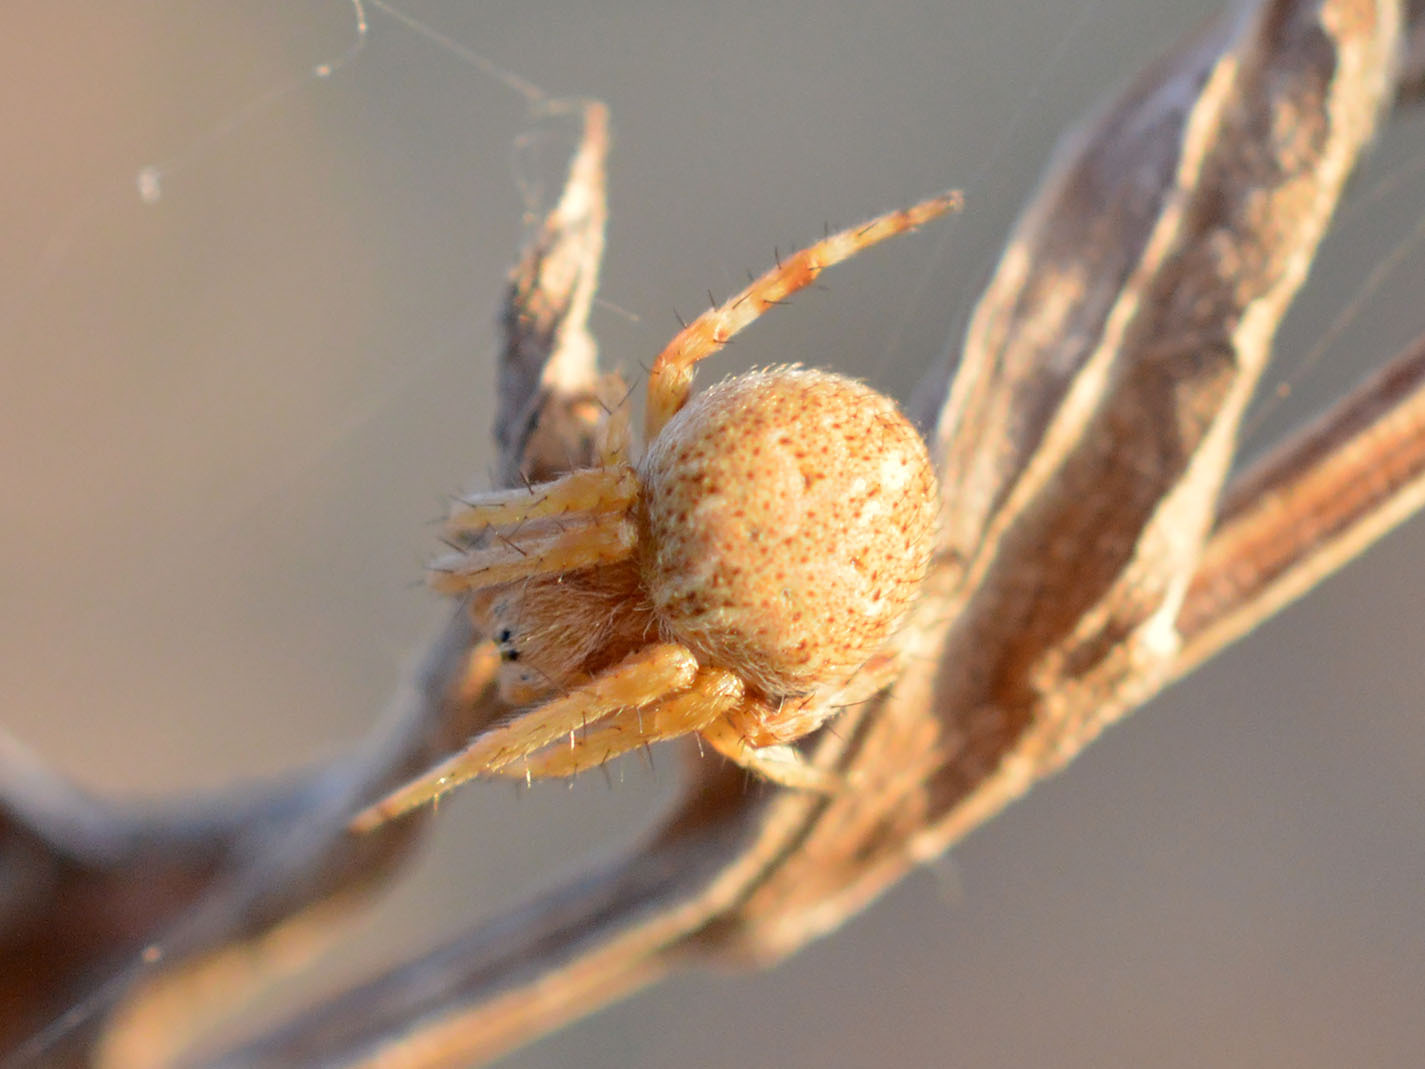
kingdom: Animalia
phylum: Arthropoda
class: Arachnida
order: Araneae
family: Araneidae
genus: Agalenatea
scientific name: Agalenatea redii
